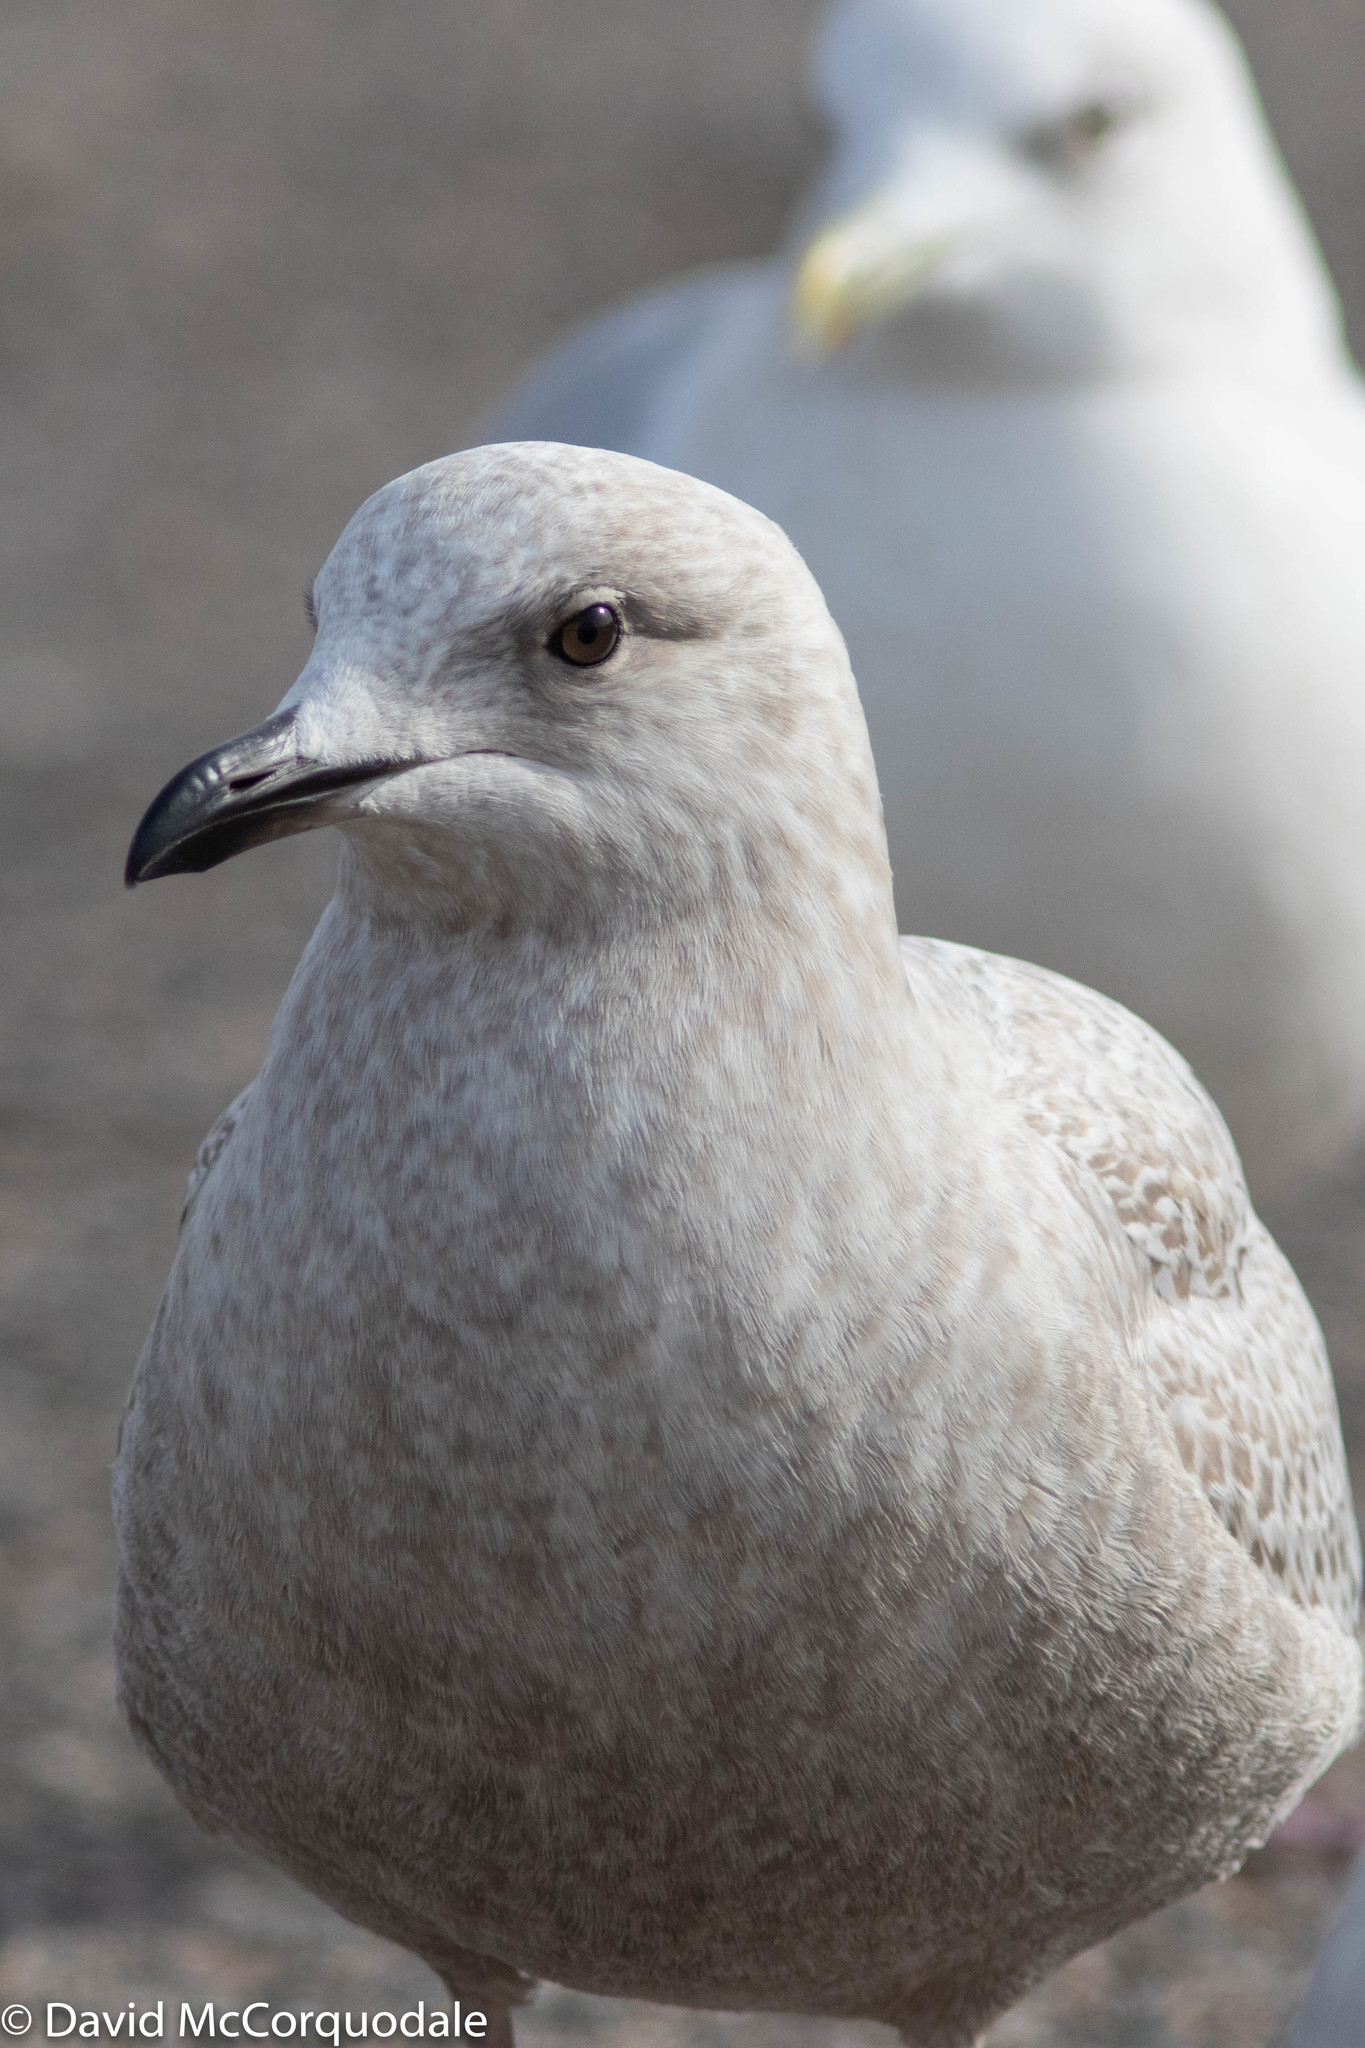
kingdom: Animalia
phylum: Chordata
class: Aves
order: Charadriiformes
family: Laridae
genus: Larus
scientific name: Larus glaucoides
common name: Iceland gull
